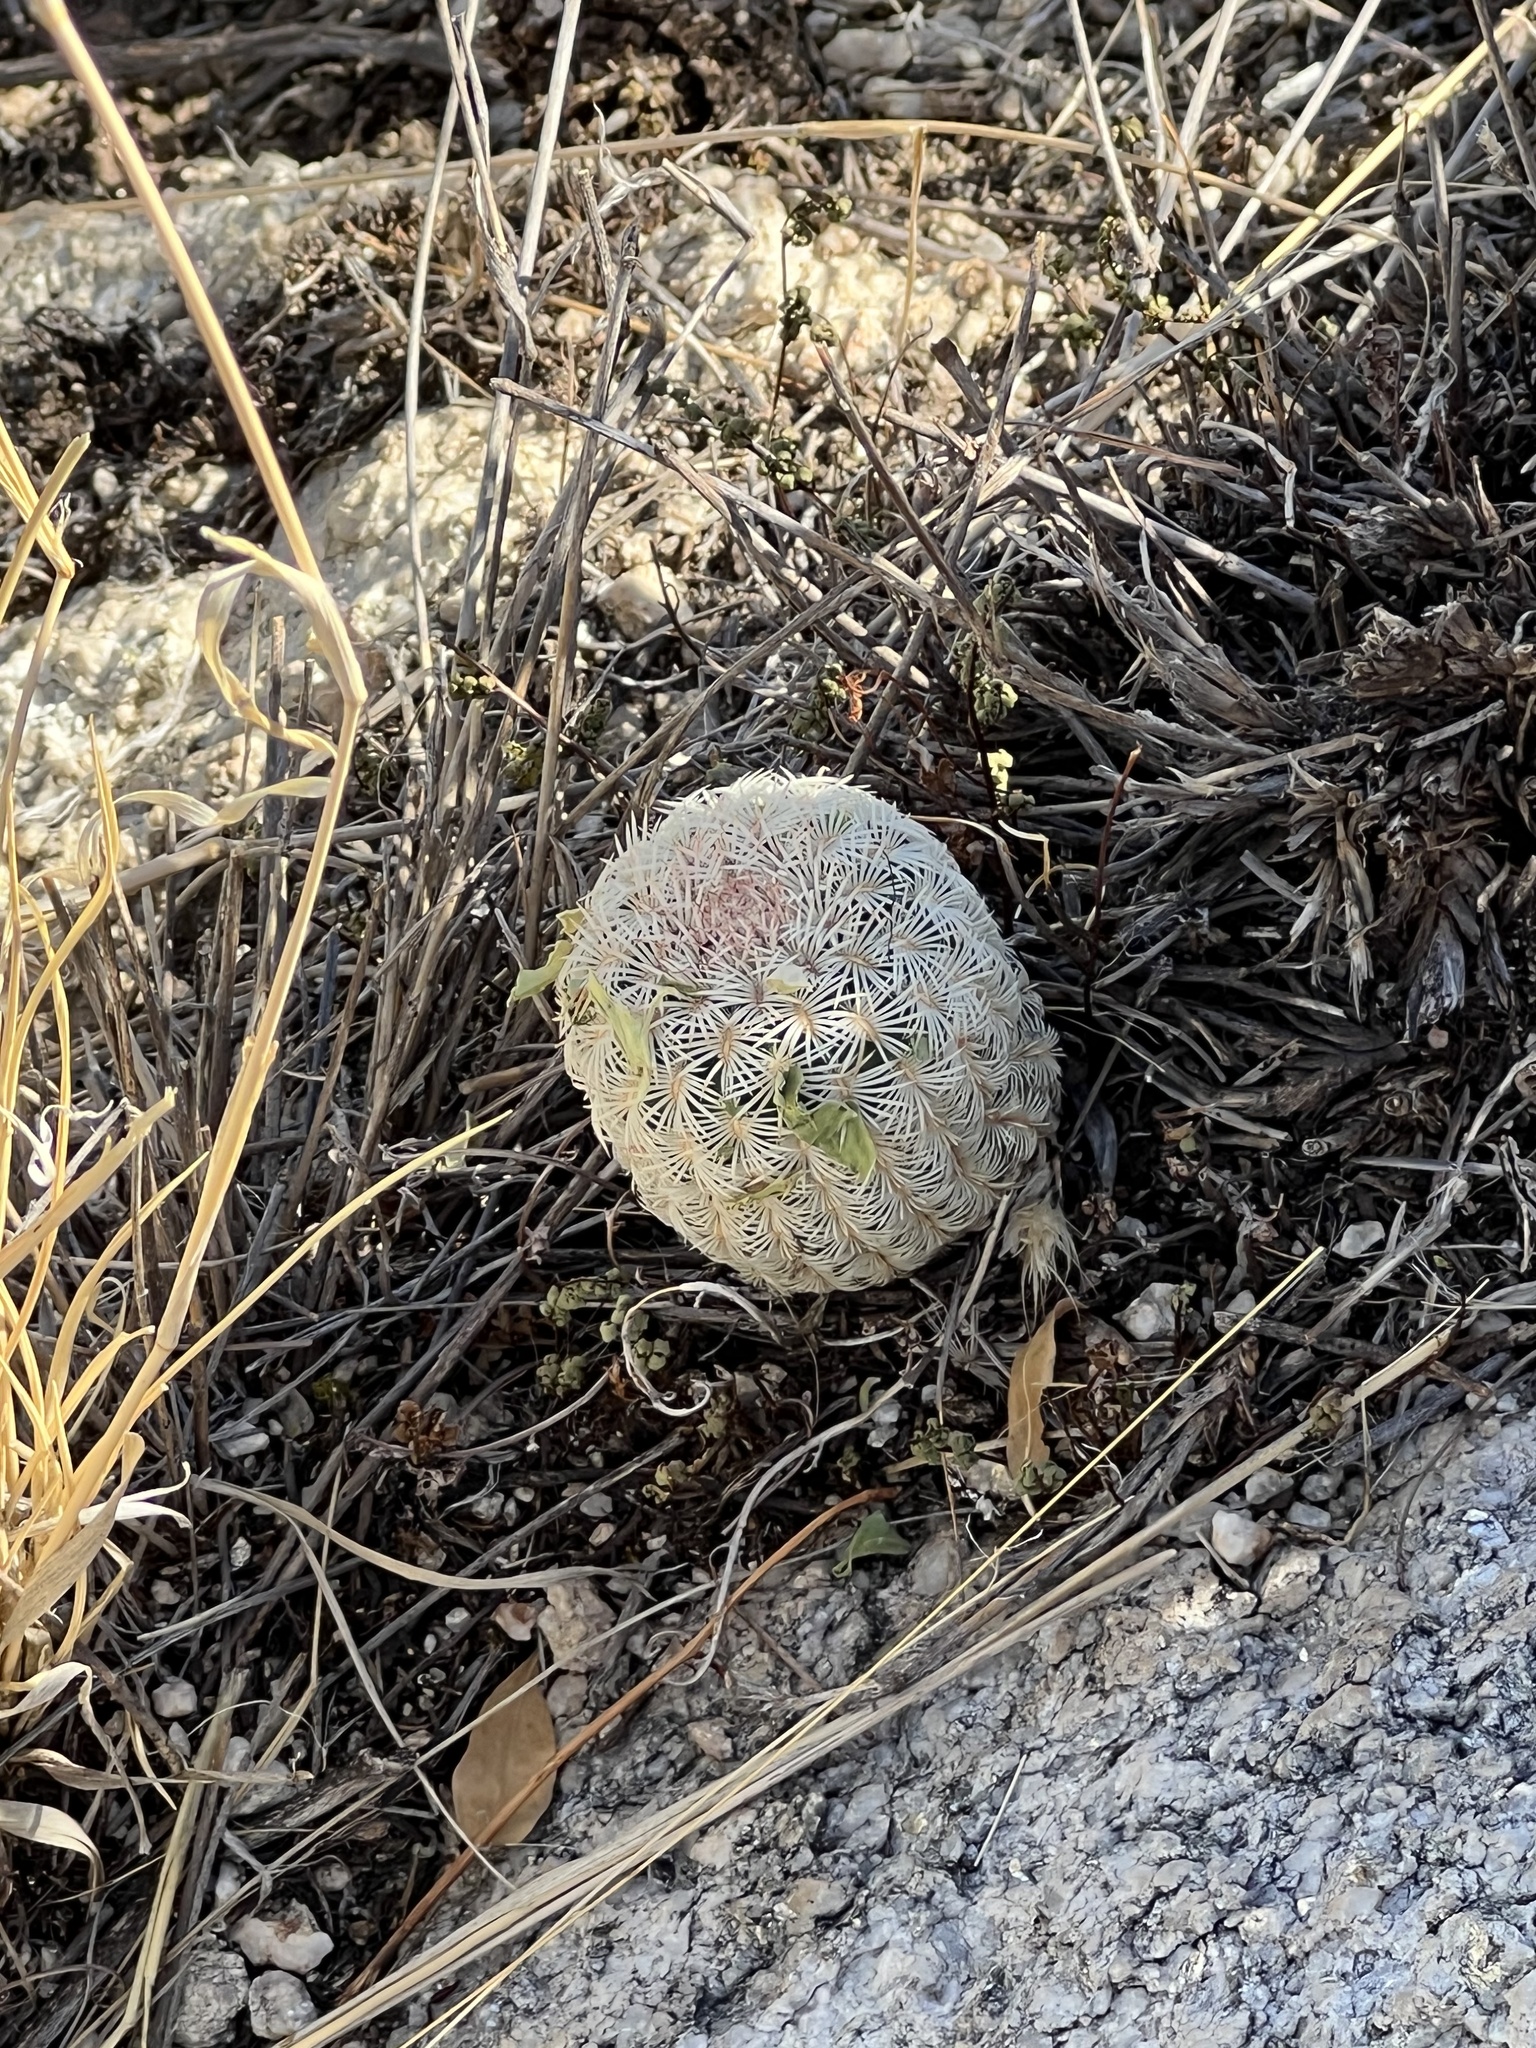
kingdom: Plantae
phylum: Tracheophyta
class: Magnoliopsida
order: Caryophyllales
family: Cactaceae
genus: Echinocereus
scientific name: Echinocereus rigidissimus
